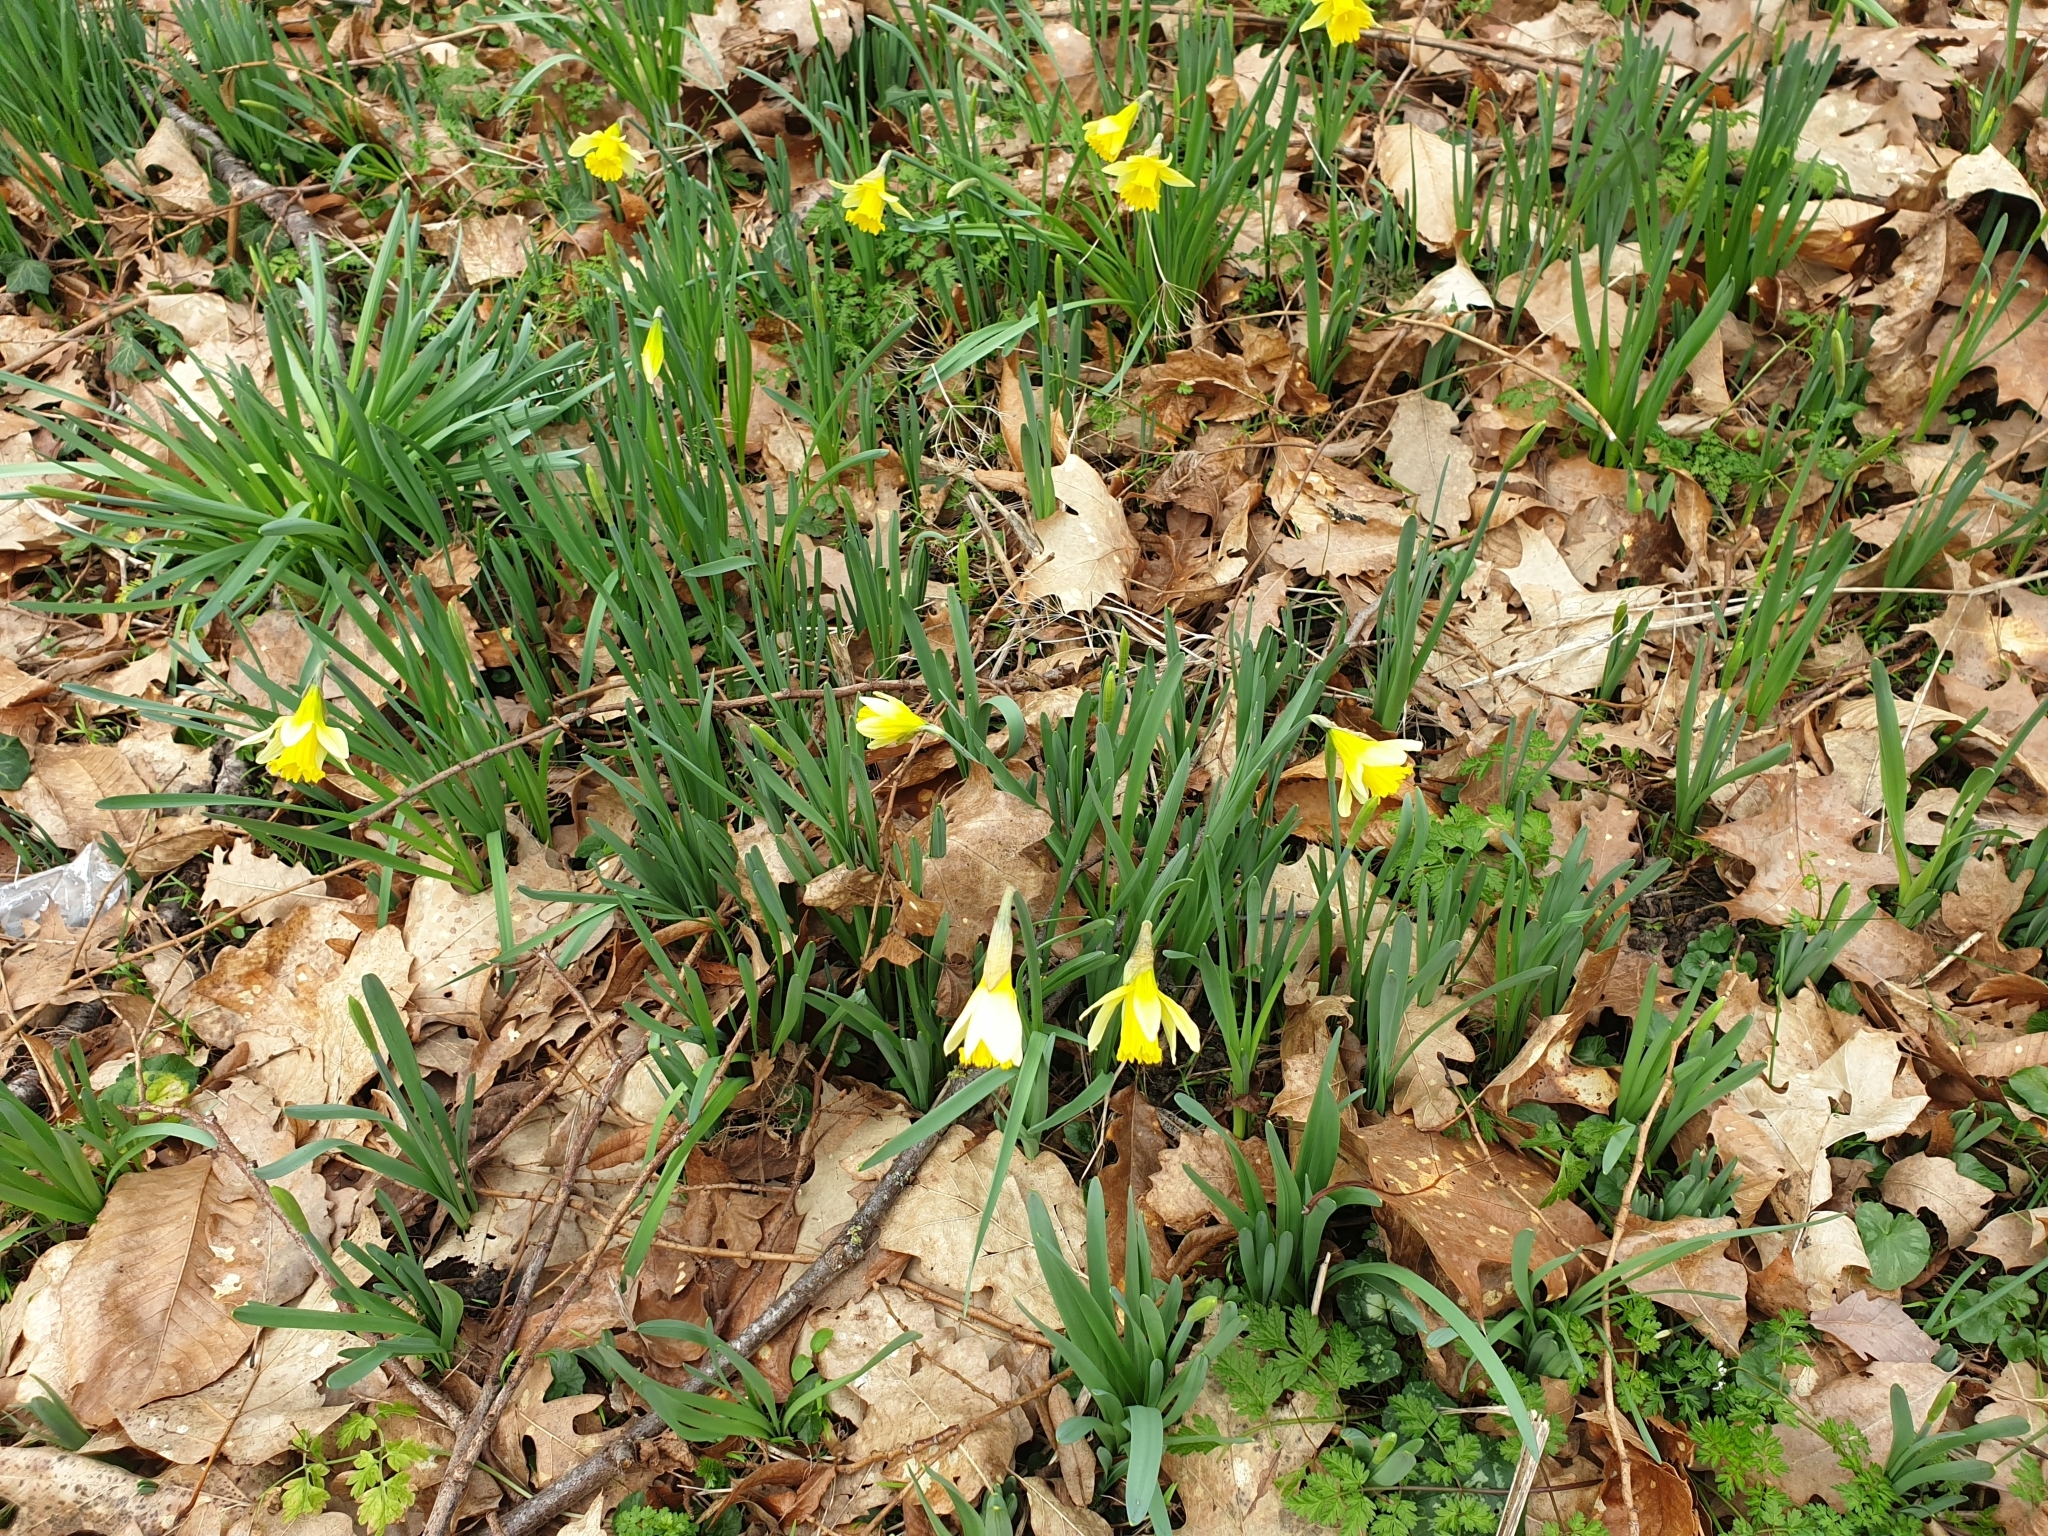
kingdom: Plantae
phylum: Tracheophyta
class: Liliopsida
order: Asparagales
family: Amaryllidaceae
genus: Narcissus
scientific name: Narcissus pseudonarcissus
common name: Daffodil
